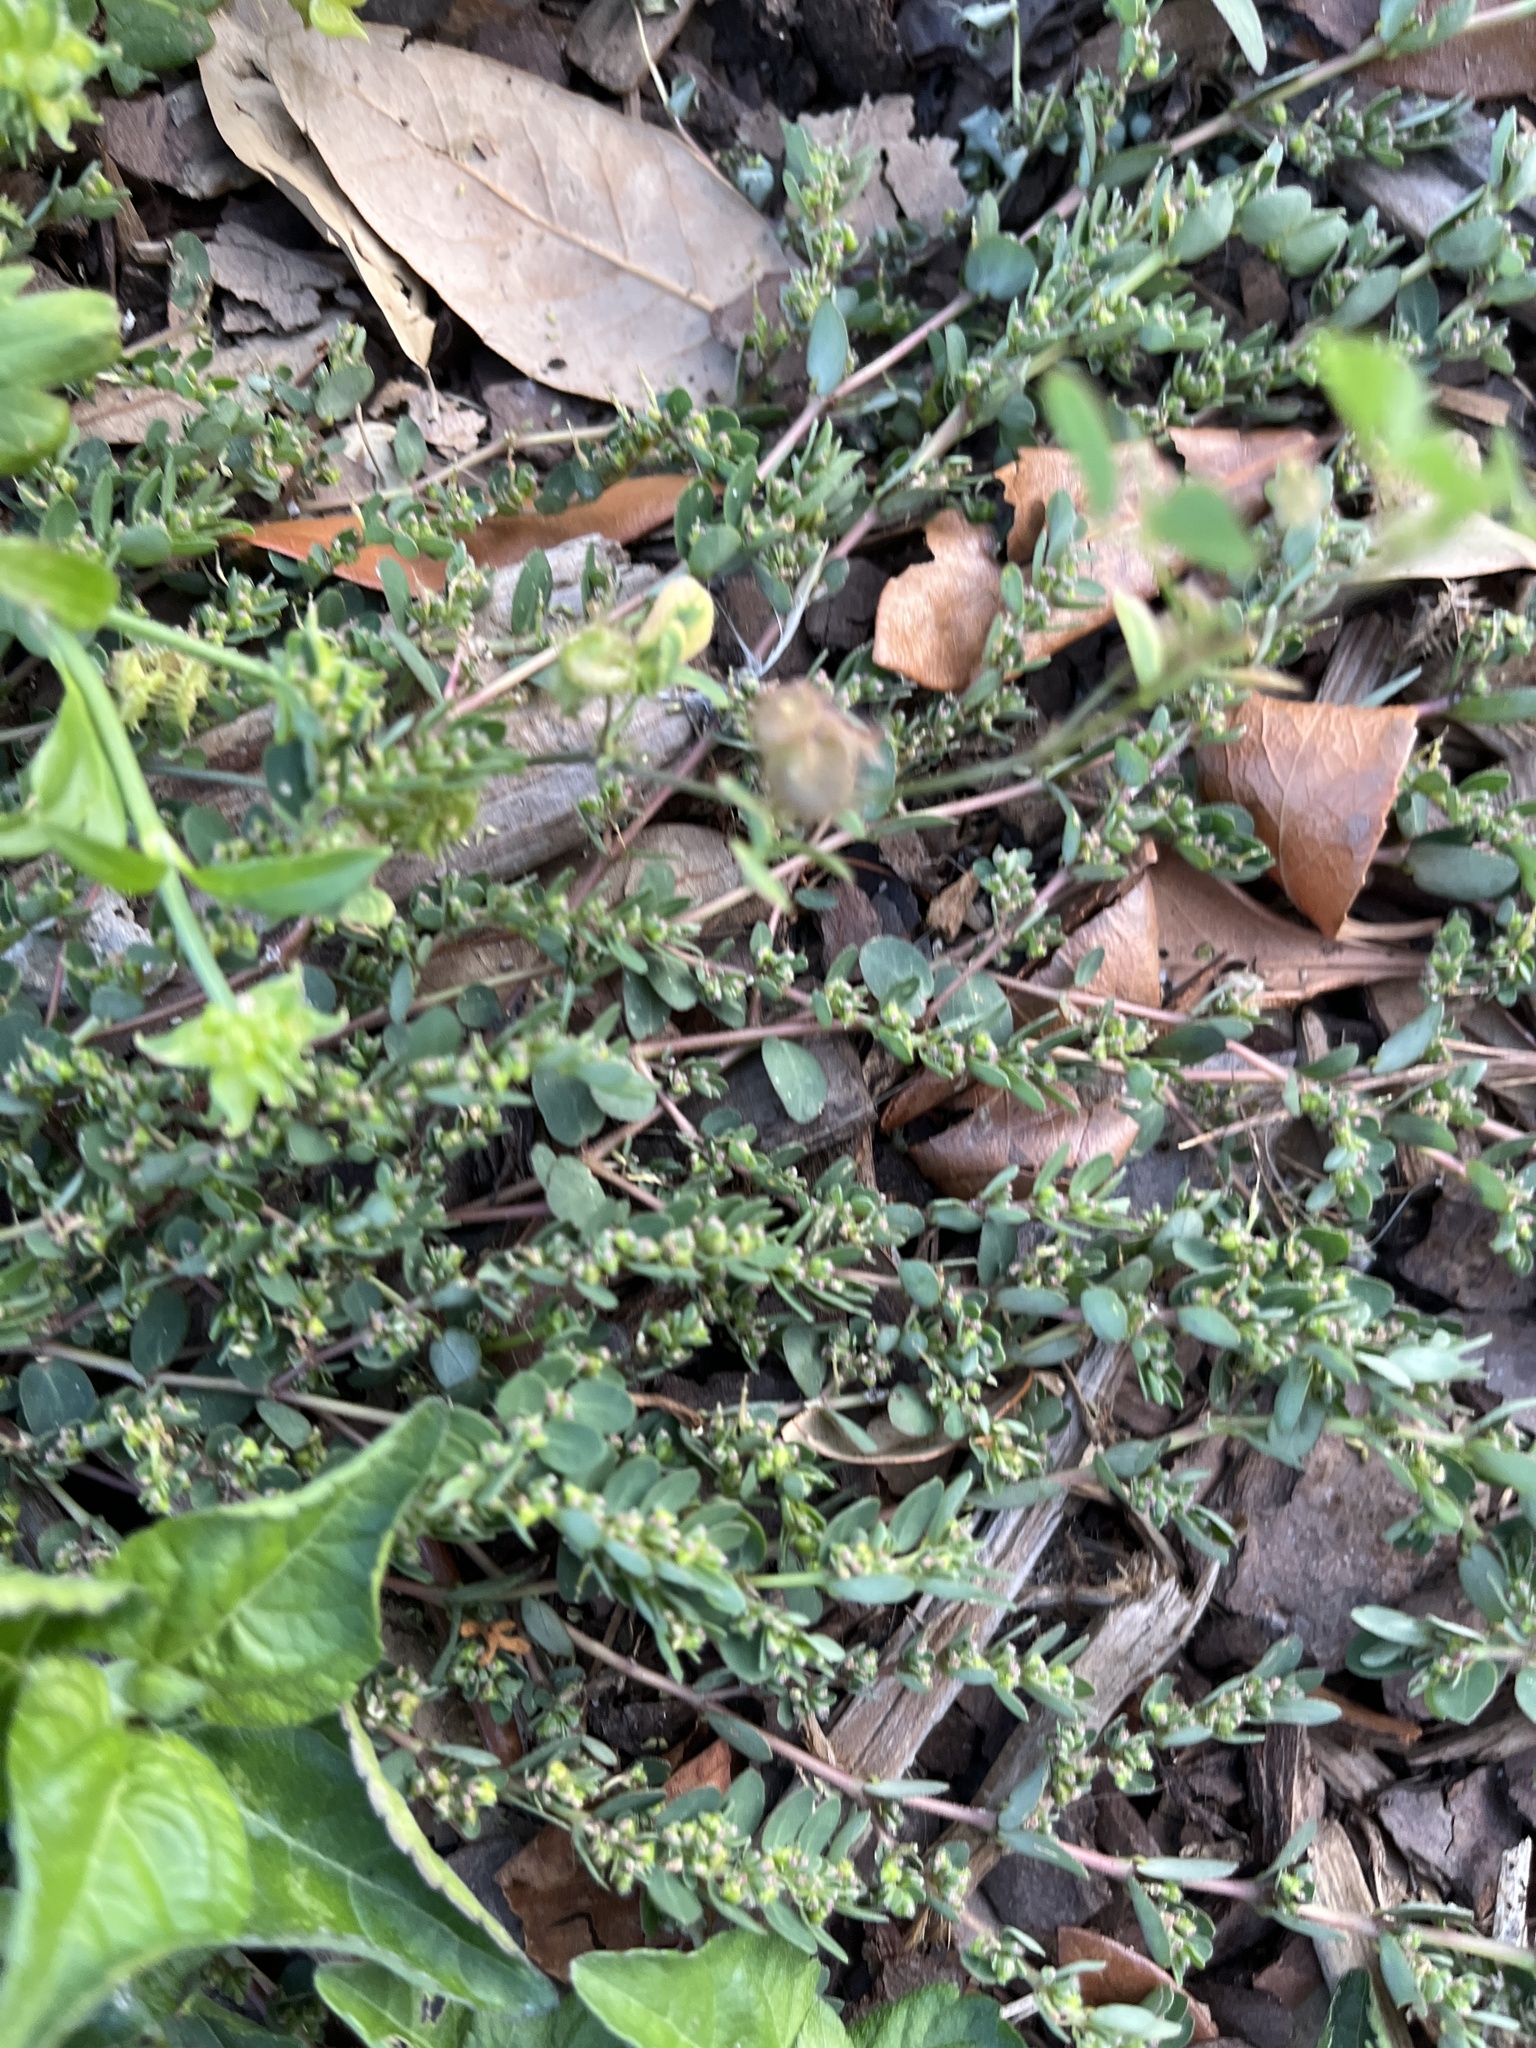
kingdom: Plantae
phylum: Tracheophyta
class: Magnoliopsida
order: Malpighiales
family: Euphorbiaceae
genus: Euphorbia
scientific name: Euphorbia prostrata
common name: Prostrate sandmat
